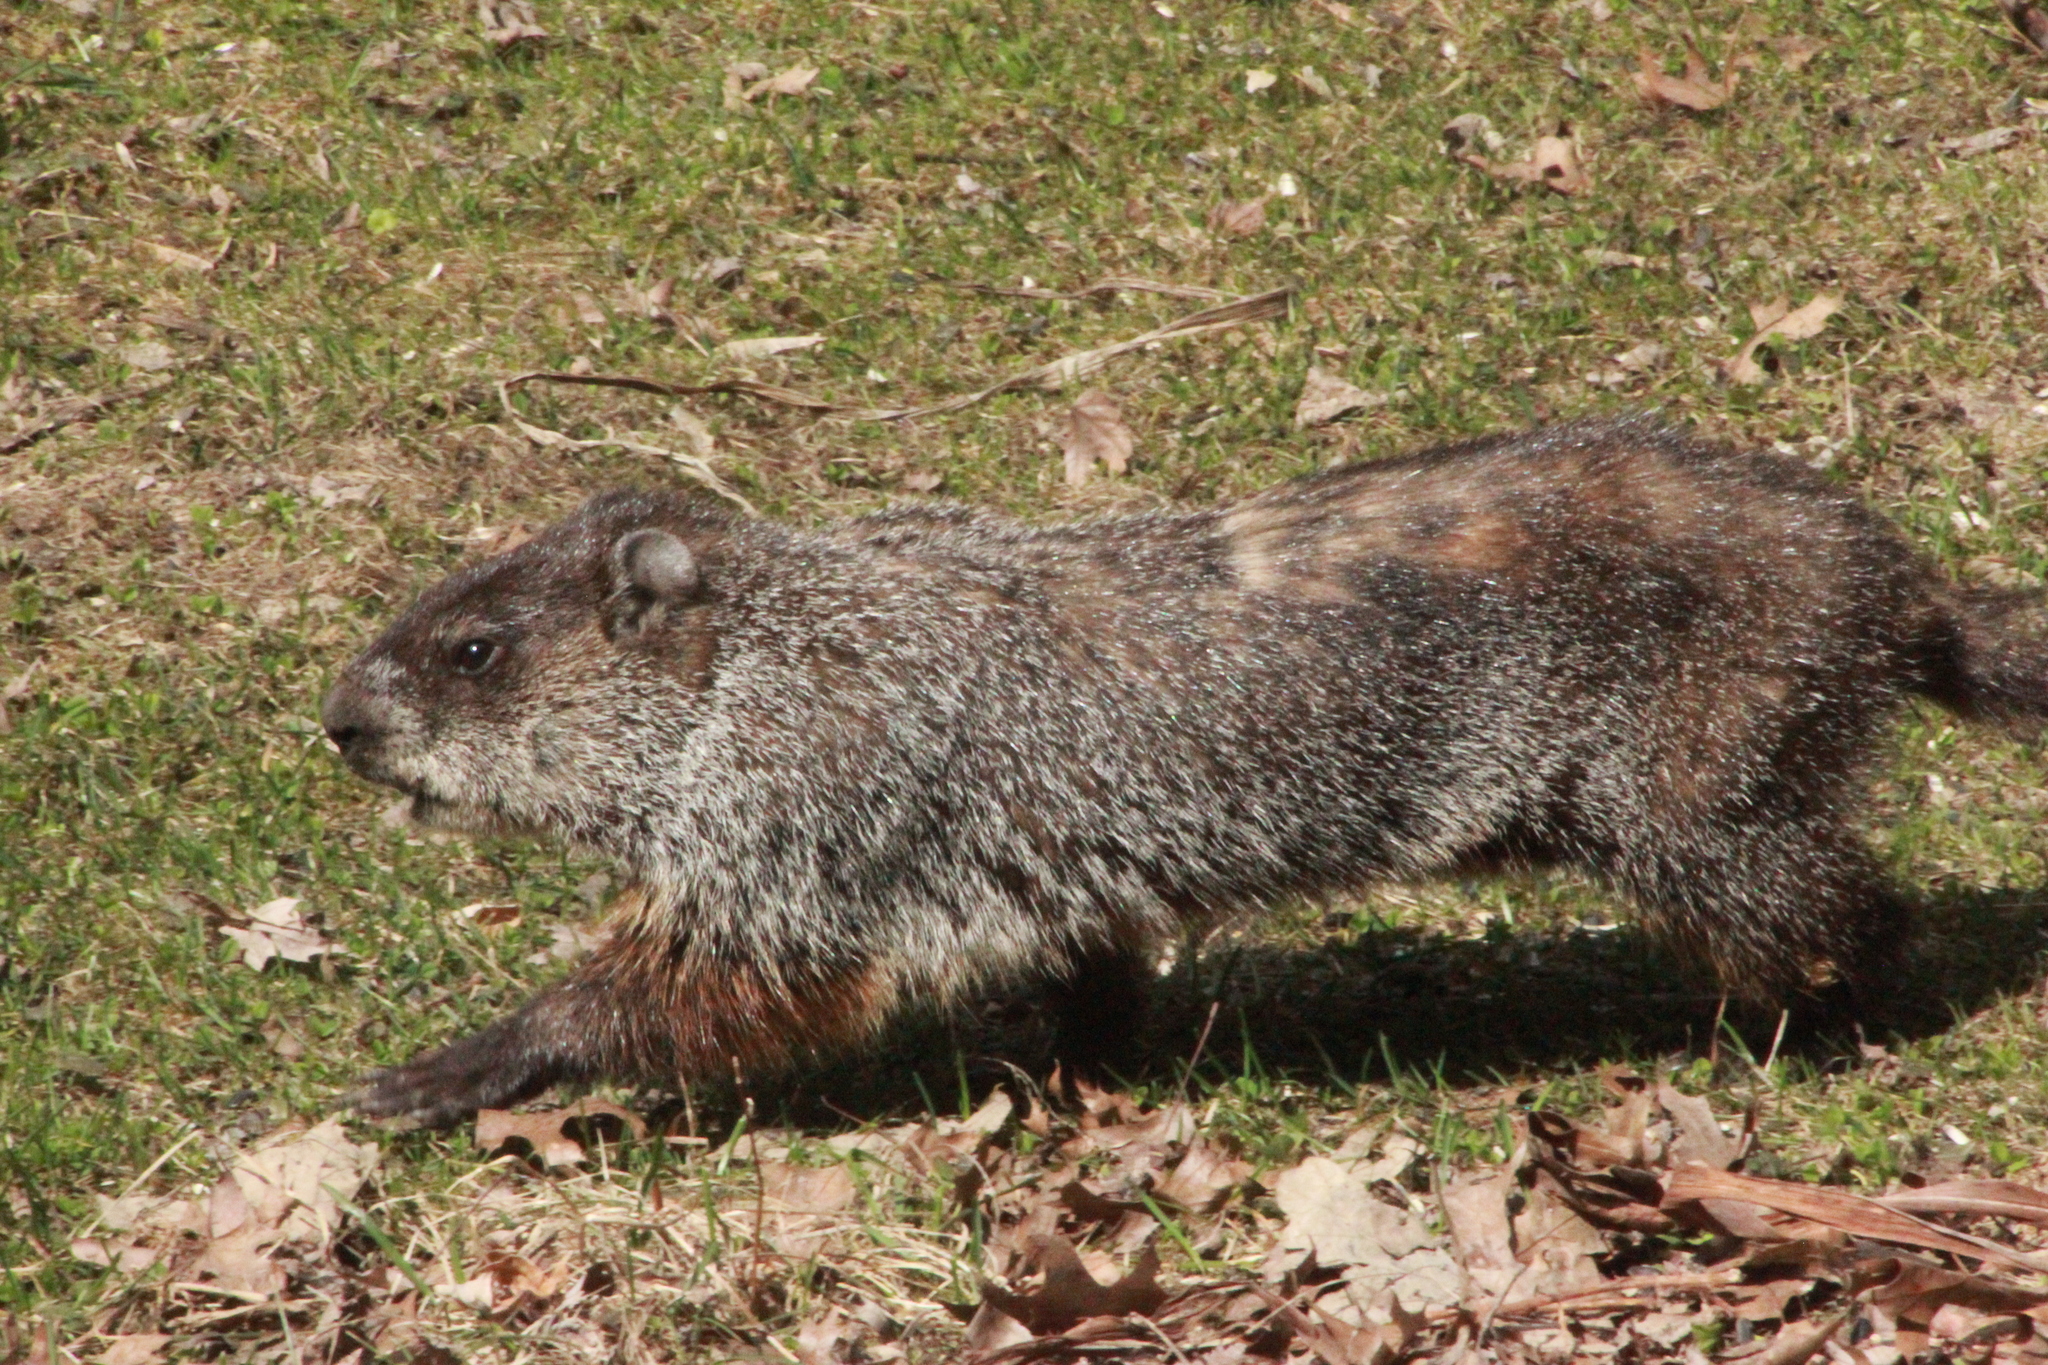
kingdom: Animalia
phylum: Chordata
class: Mammalia
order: Rodentia
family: Sciuridae
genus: Marmota
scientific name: Marmota monax
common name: Groundhog
